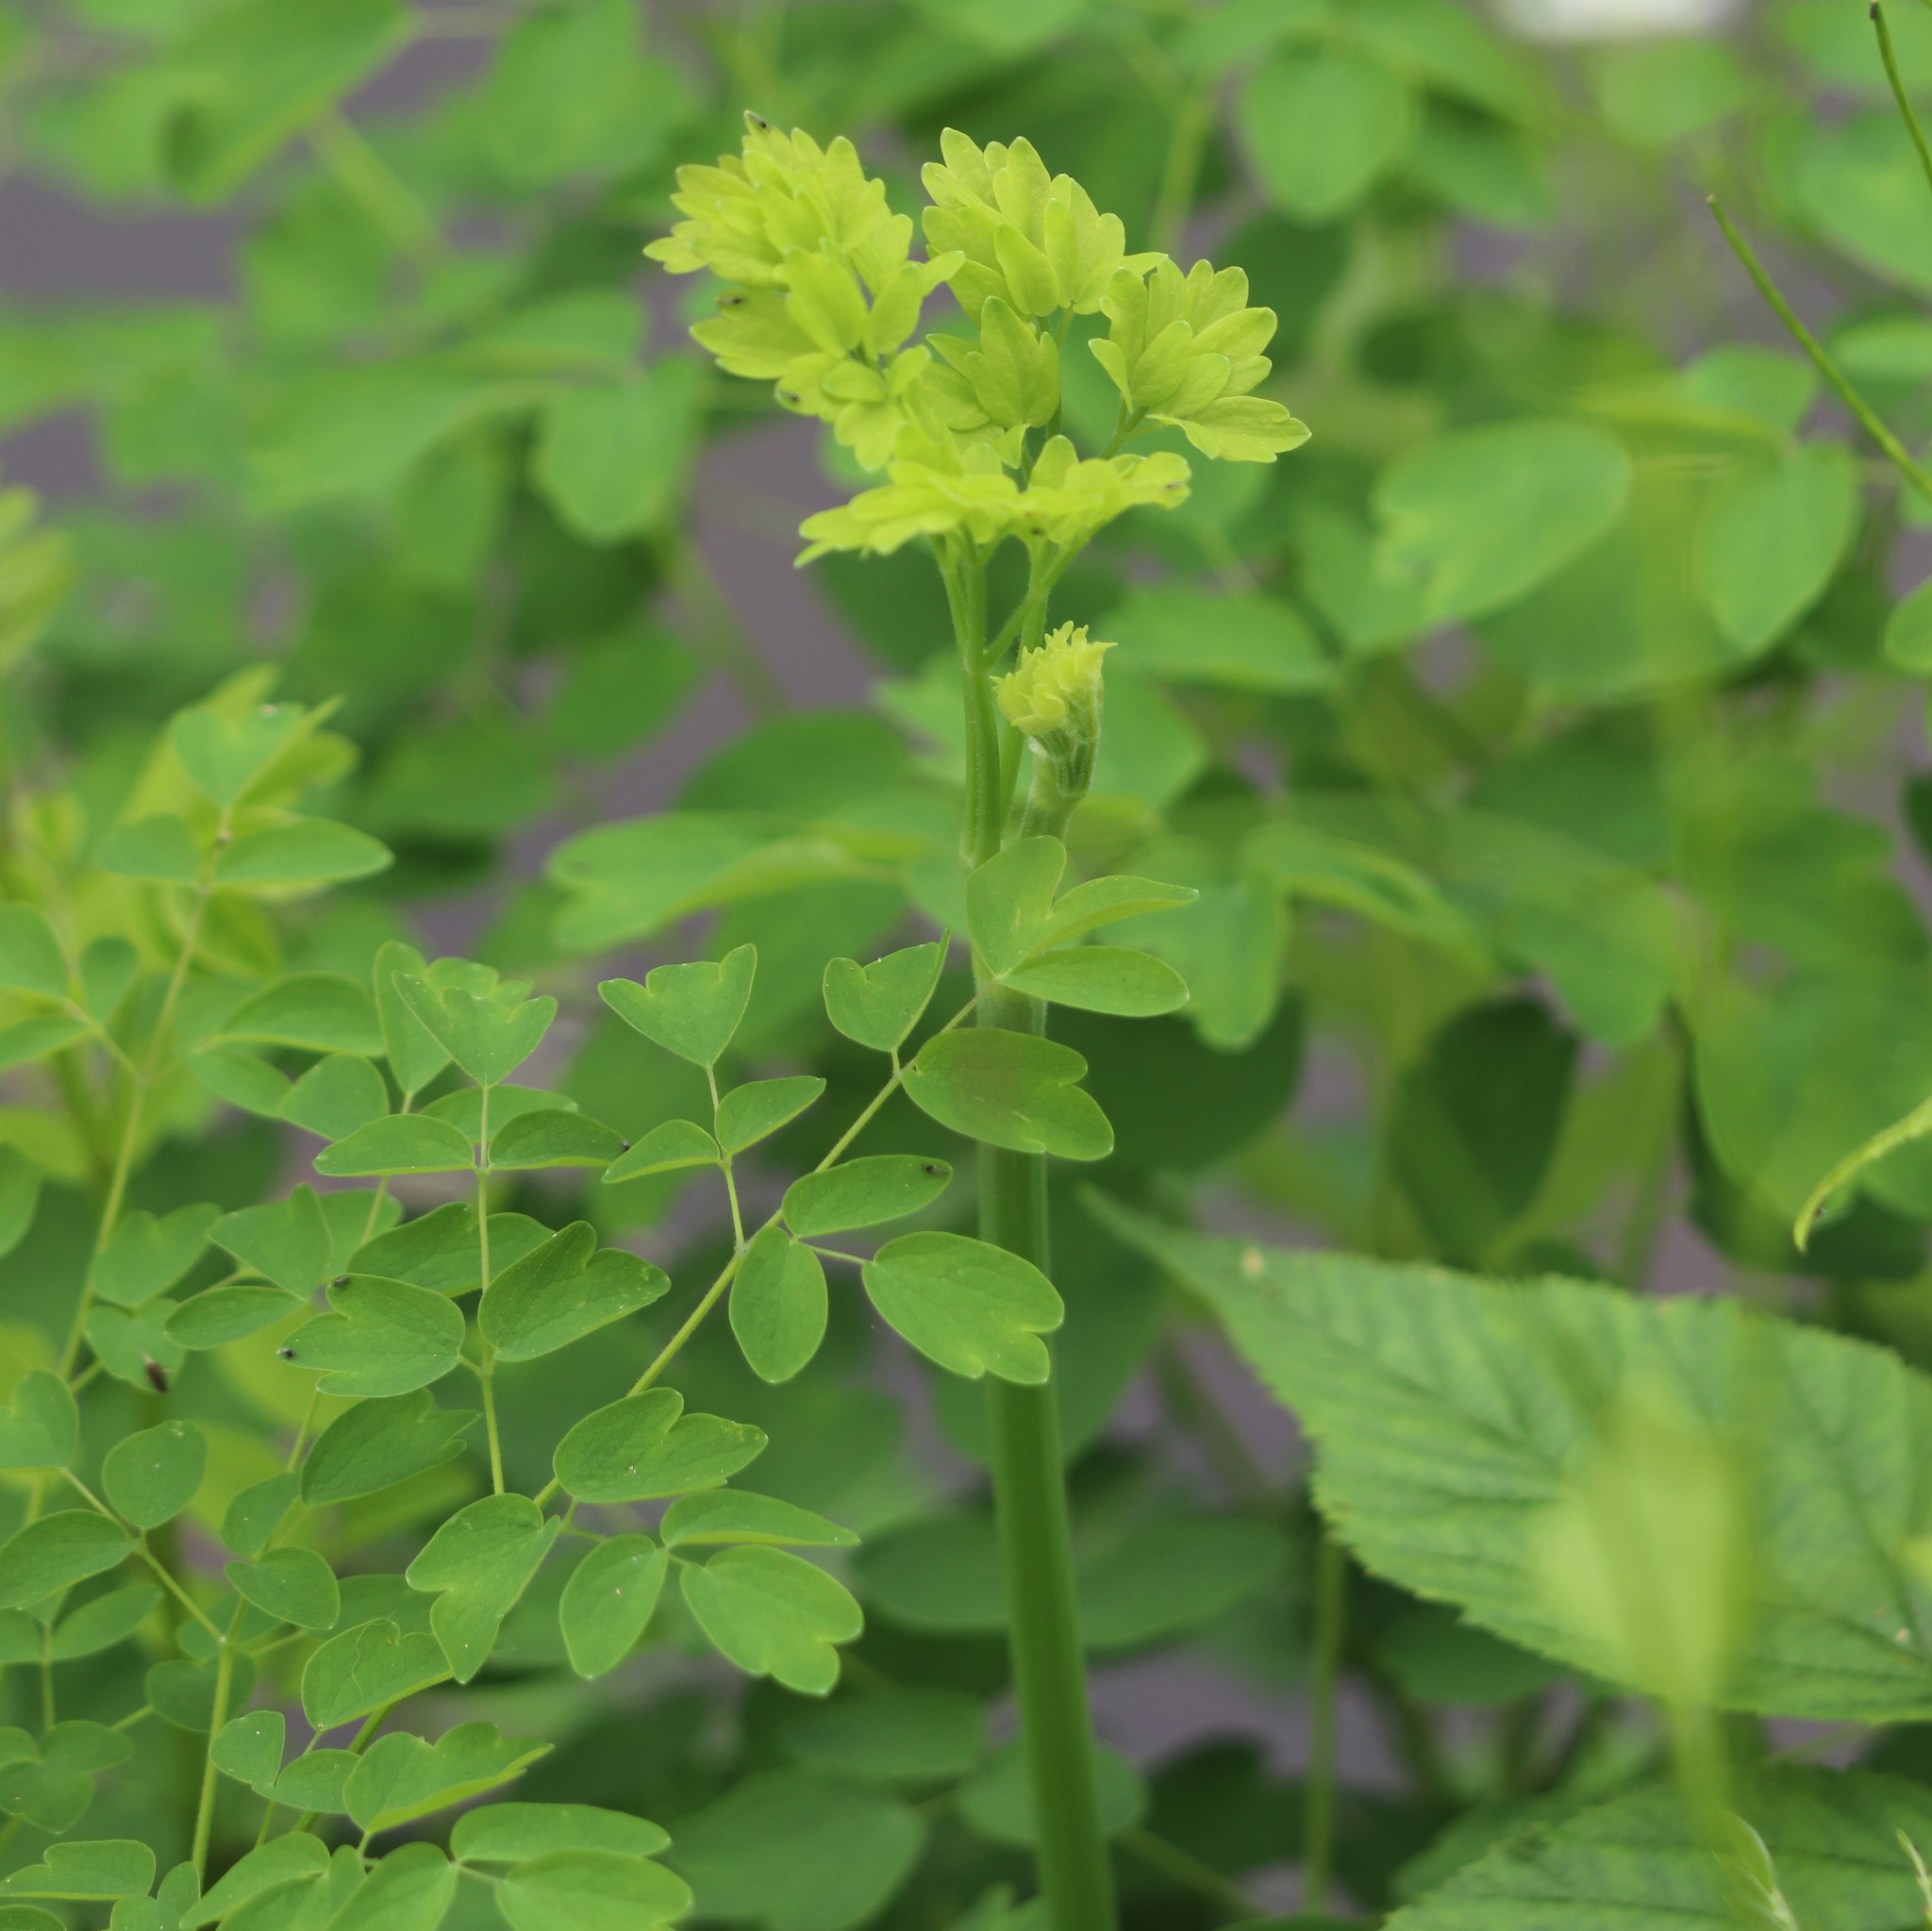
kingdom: Plantae
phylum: Tracheophyta
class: Magnoliopsida
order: Ranunculales
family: Ranunculaceae
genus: Thalictrum
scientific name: Thalictrum pubescens
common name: King-of-the-meadow
